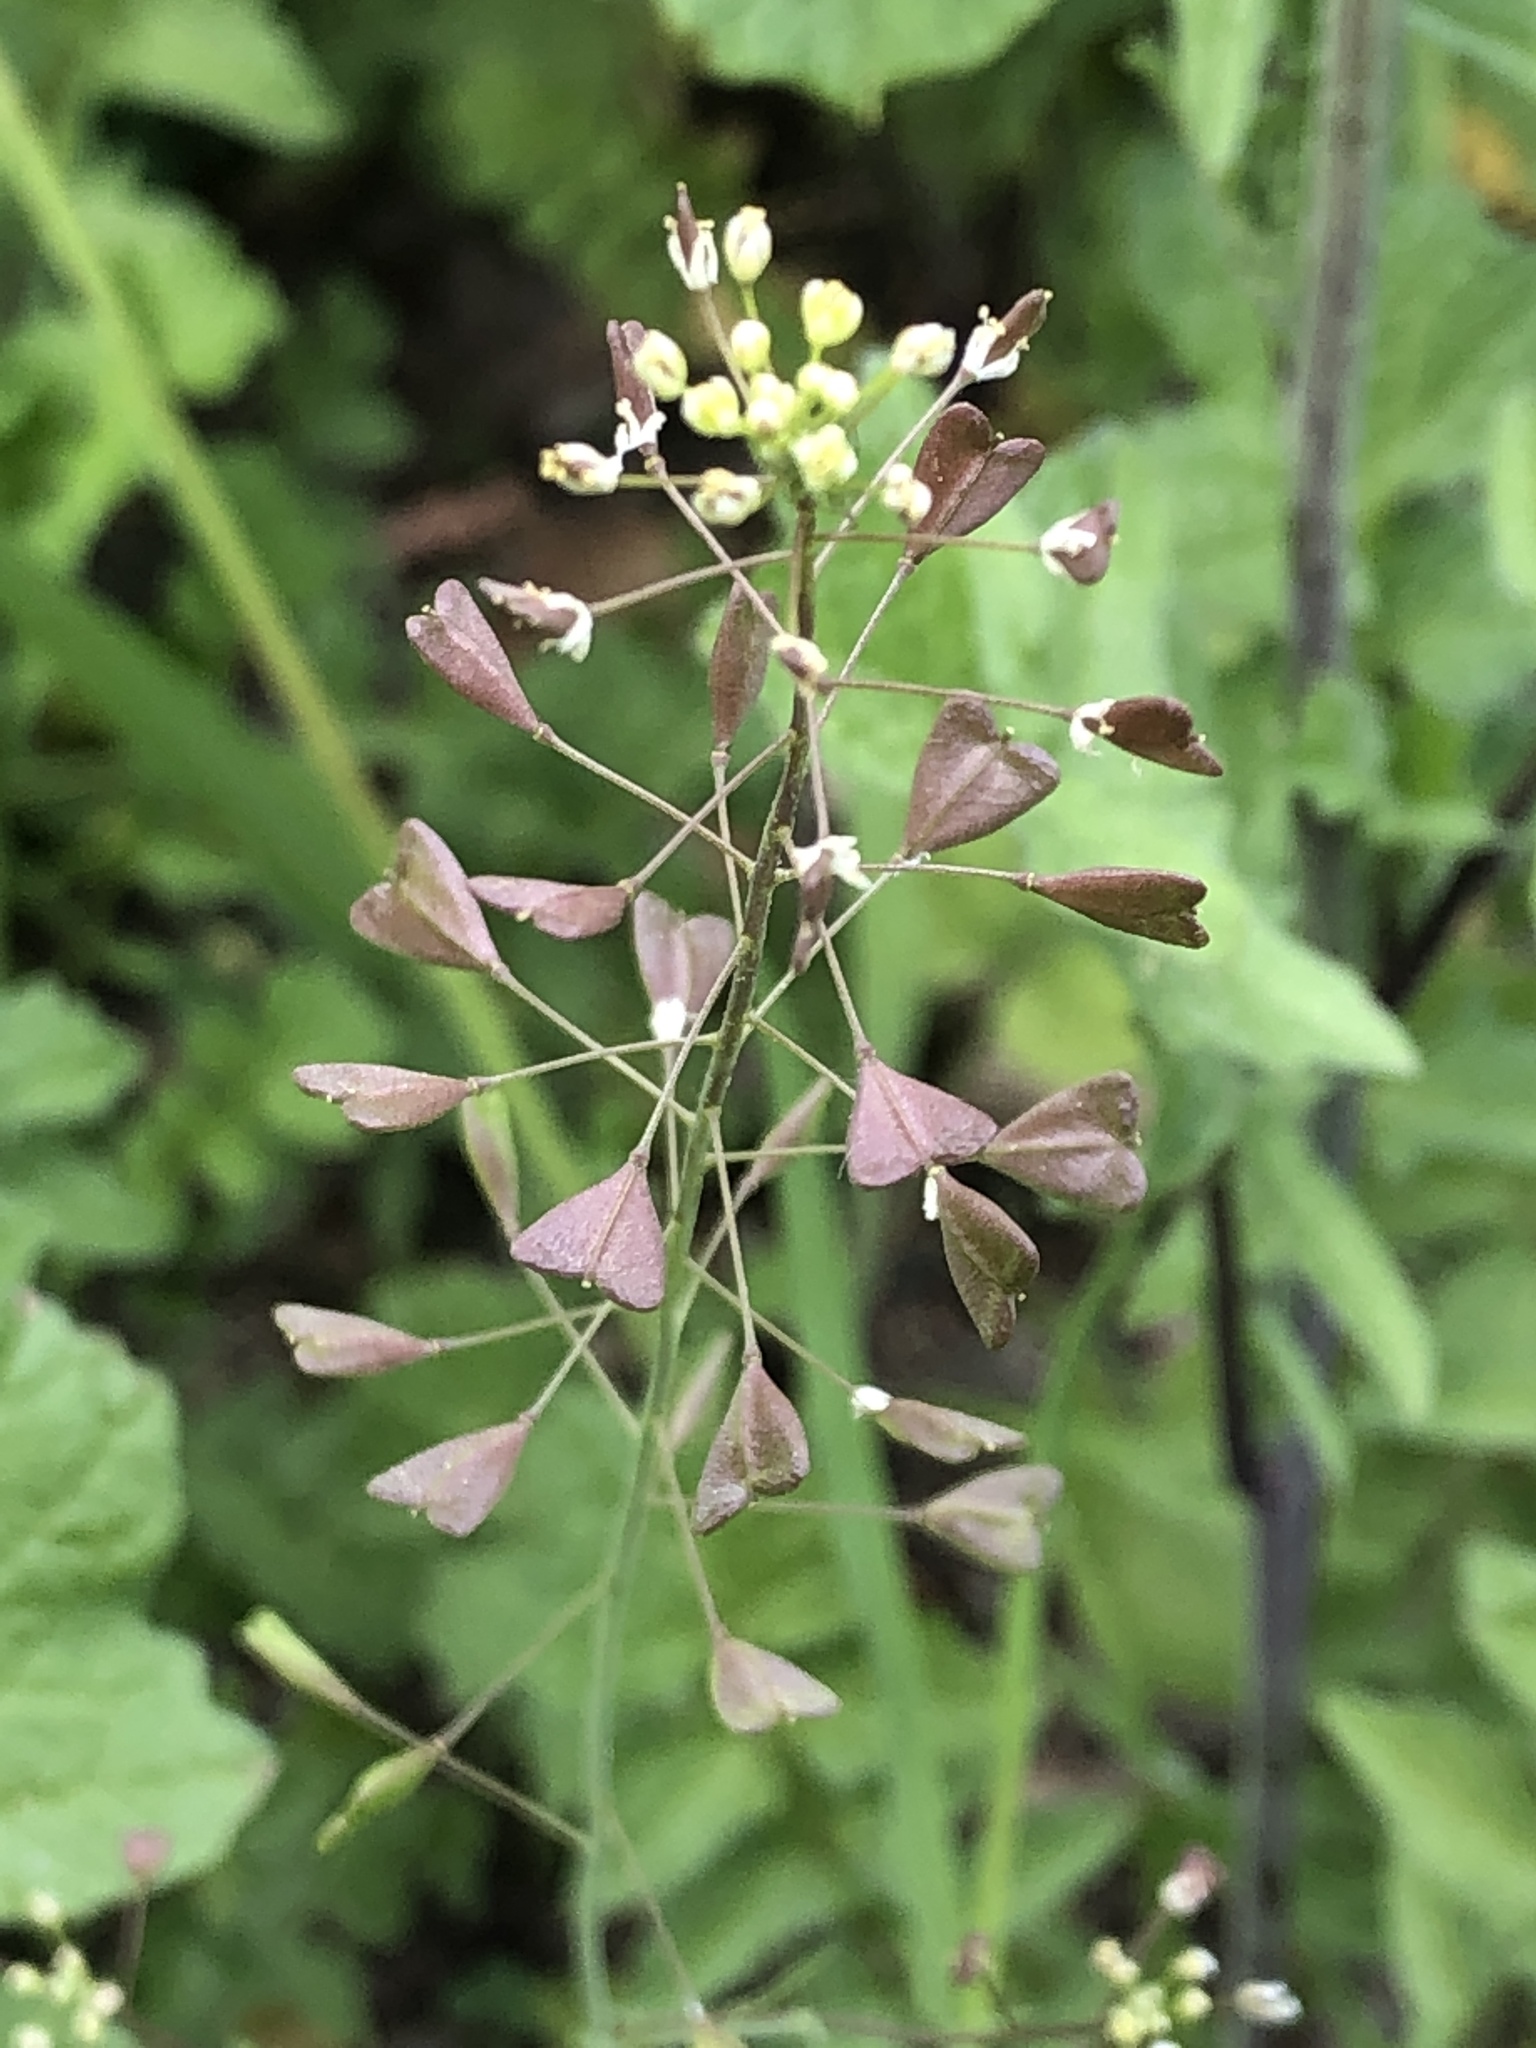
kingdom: Plantae
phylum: Tracheophyta
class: Magnoliopsida
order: Brassicales
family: Brassicaceae
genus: Capsella
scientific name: Capsella bursa-pastoris
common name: Shepherd's purse
